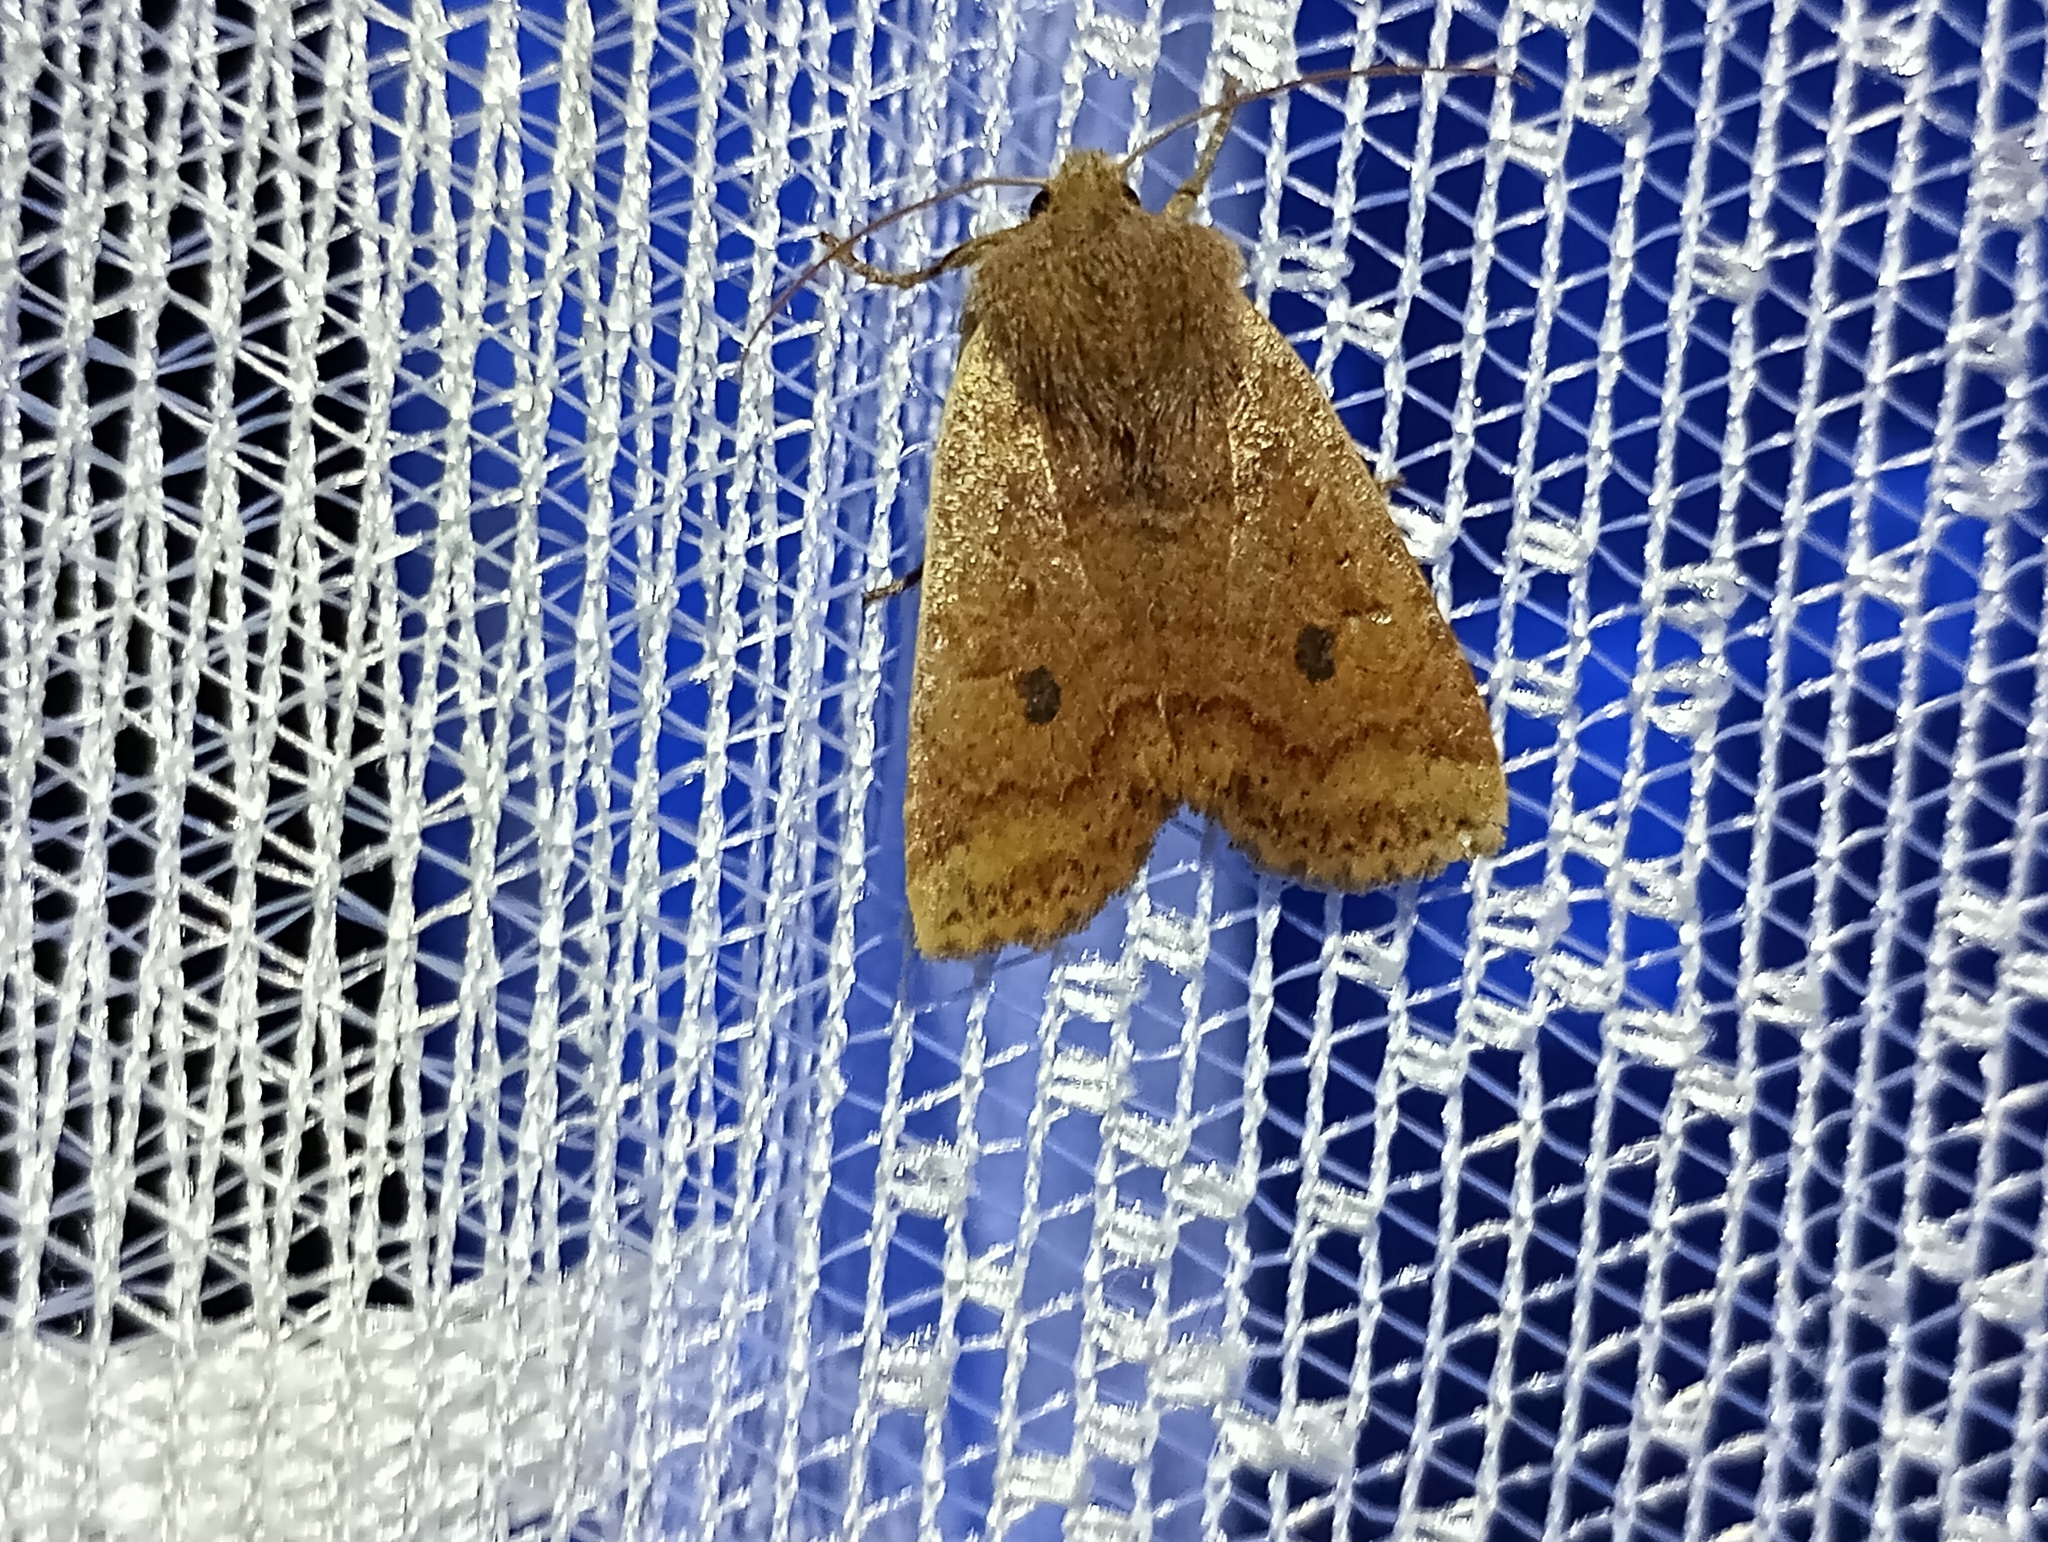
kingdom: Animalia
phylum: Arthropoda
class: Insecta
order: Lepidoptera
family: Noctuidae
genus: Conistra
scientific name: Conistra vaccinii
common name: Chestnut
